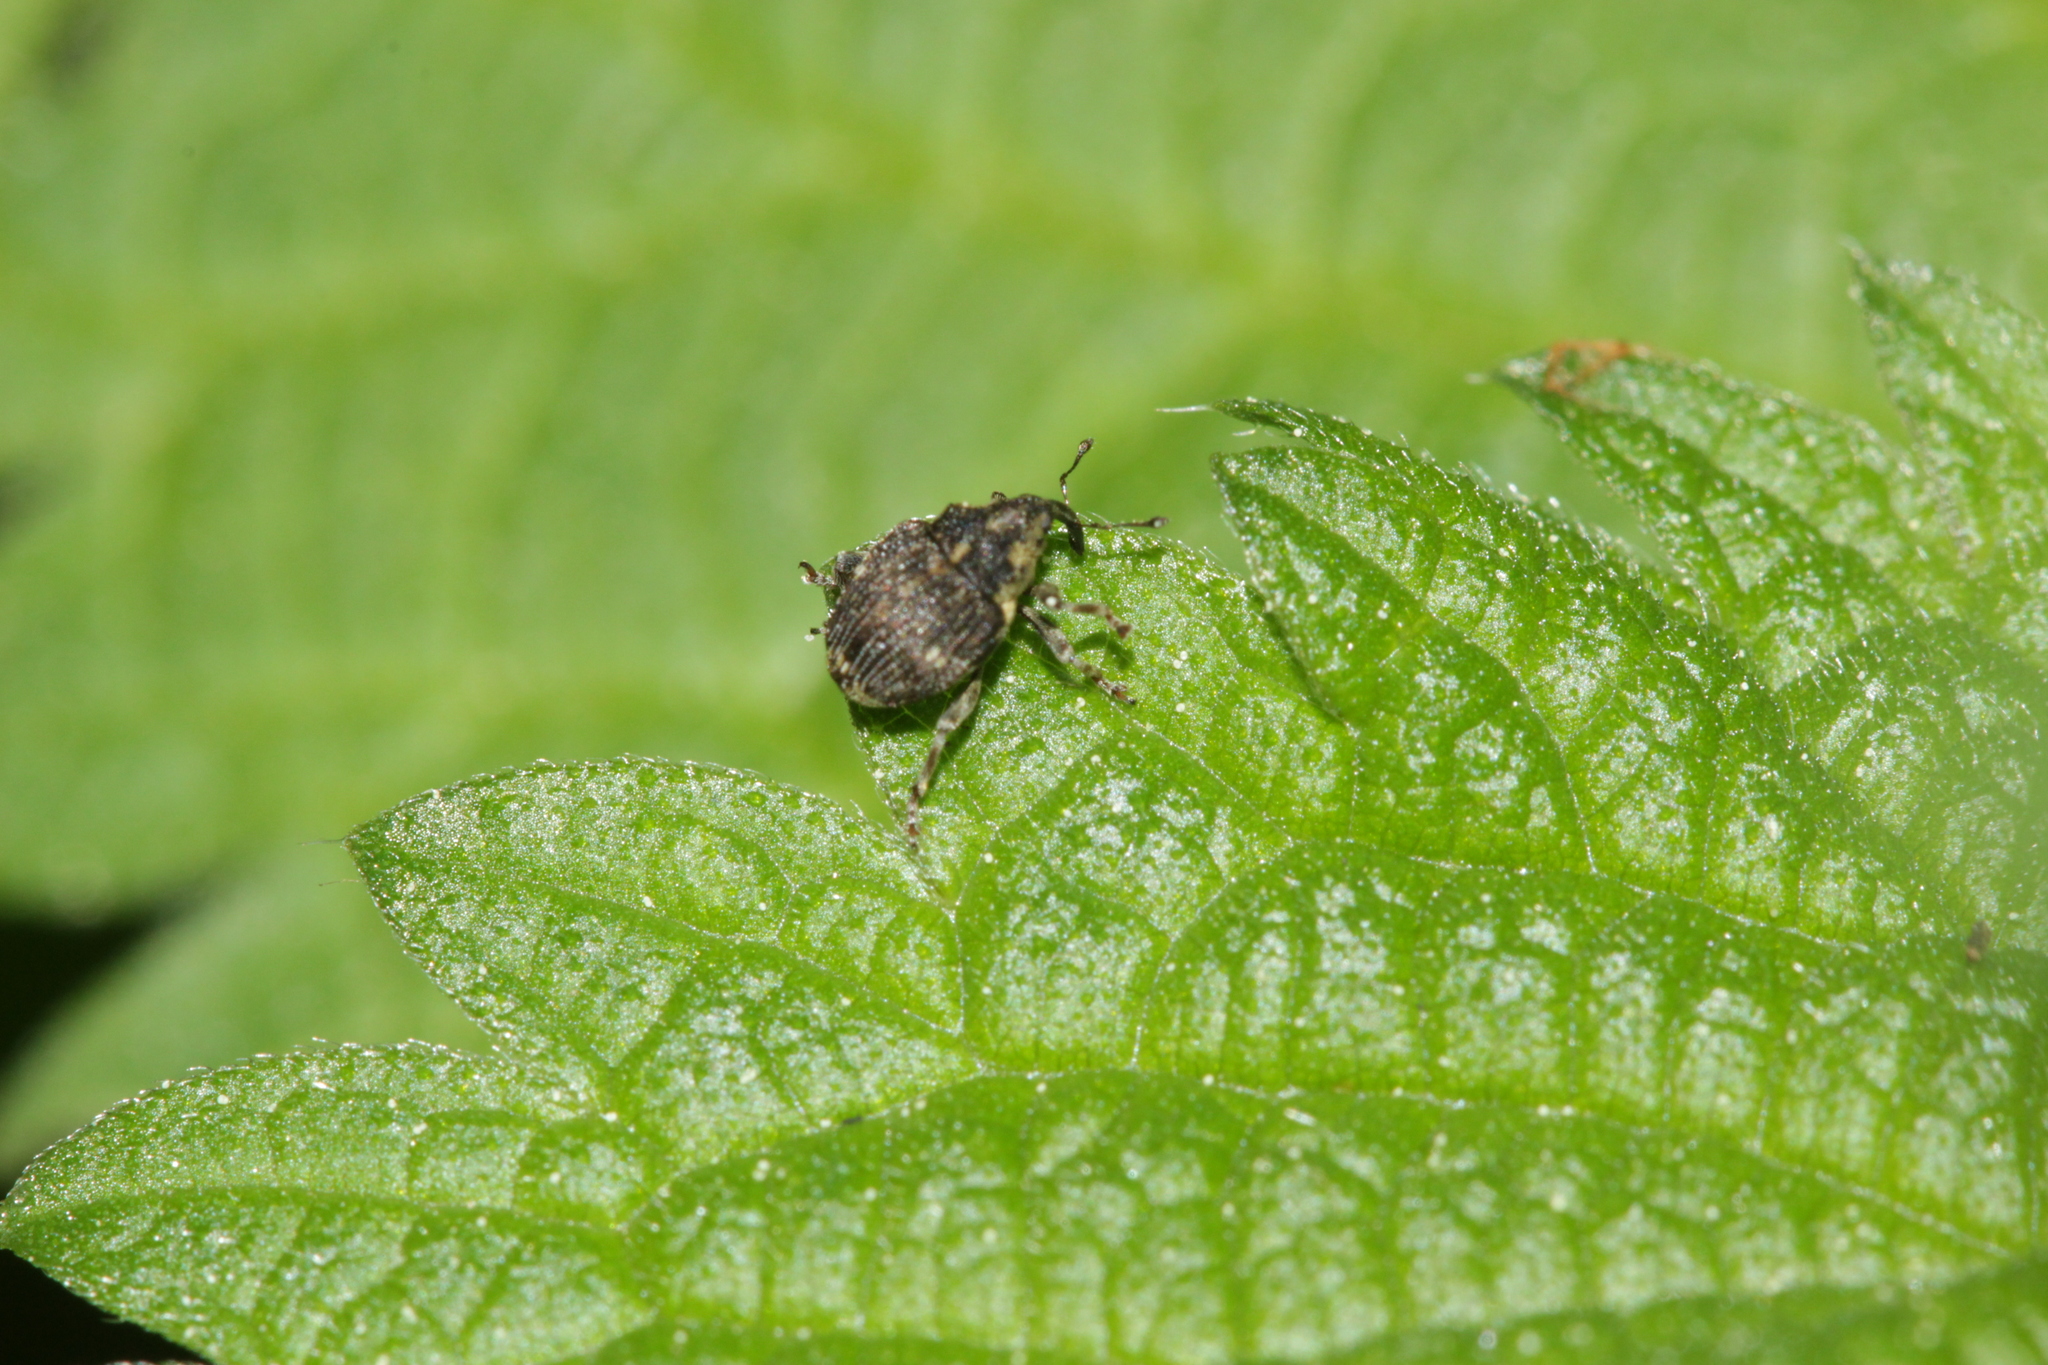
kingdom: Animalia
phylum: Arthropoda
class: Insecta
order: Coleoptera
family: Curculionidae
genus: Nedyus
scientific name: Nedyus quadrimaculatus
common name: Small nettle weevil
